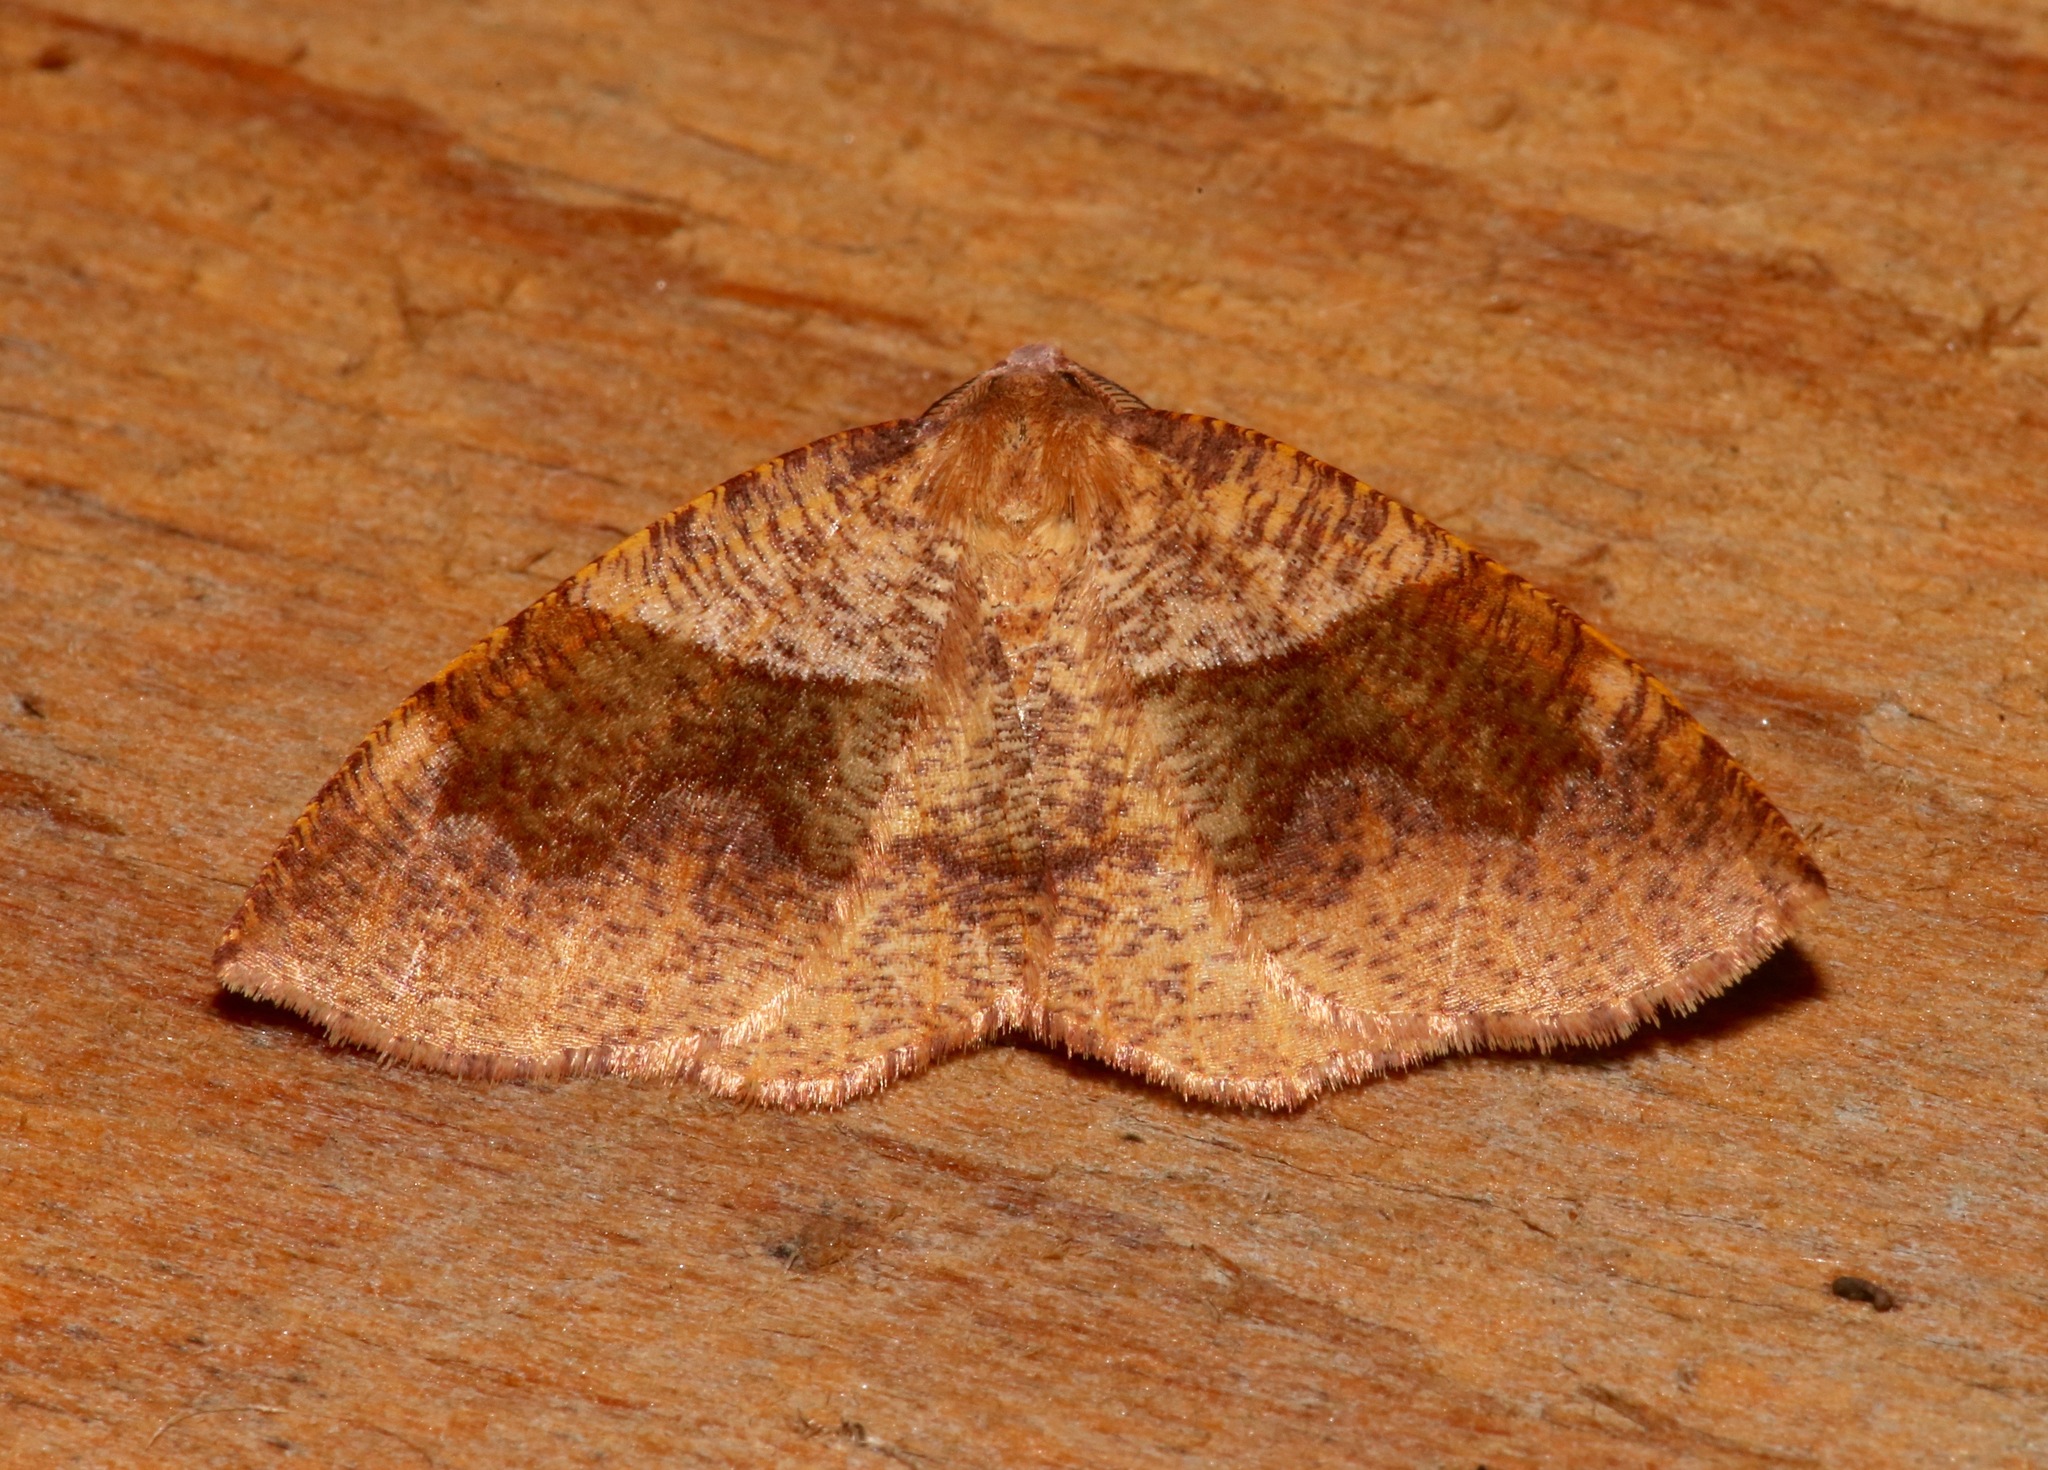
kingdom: Animalia
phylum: Arthropoda
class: Insecta
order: Lepidoptera
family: Geometridae
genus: Plagodis
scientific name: Plagodis pulveraria
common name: Barred umber
